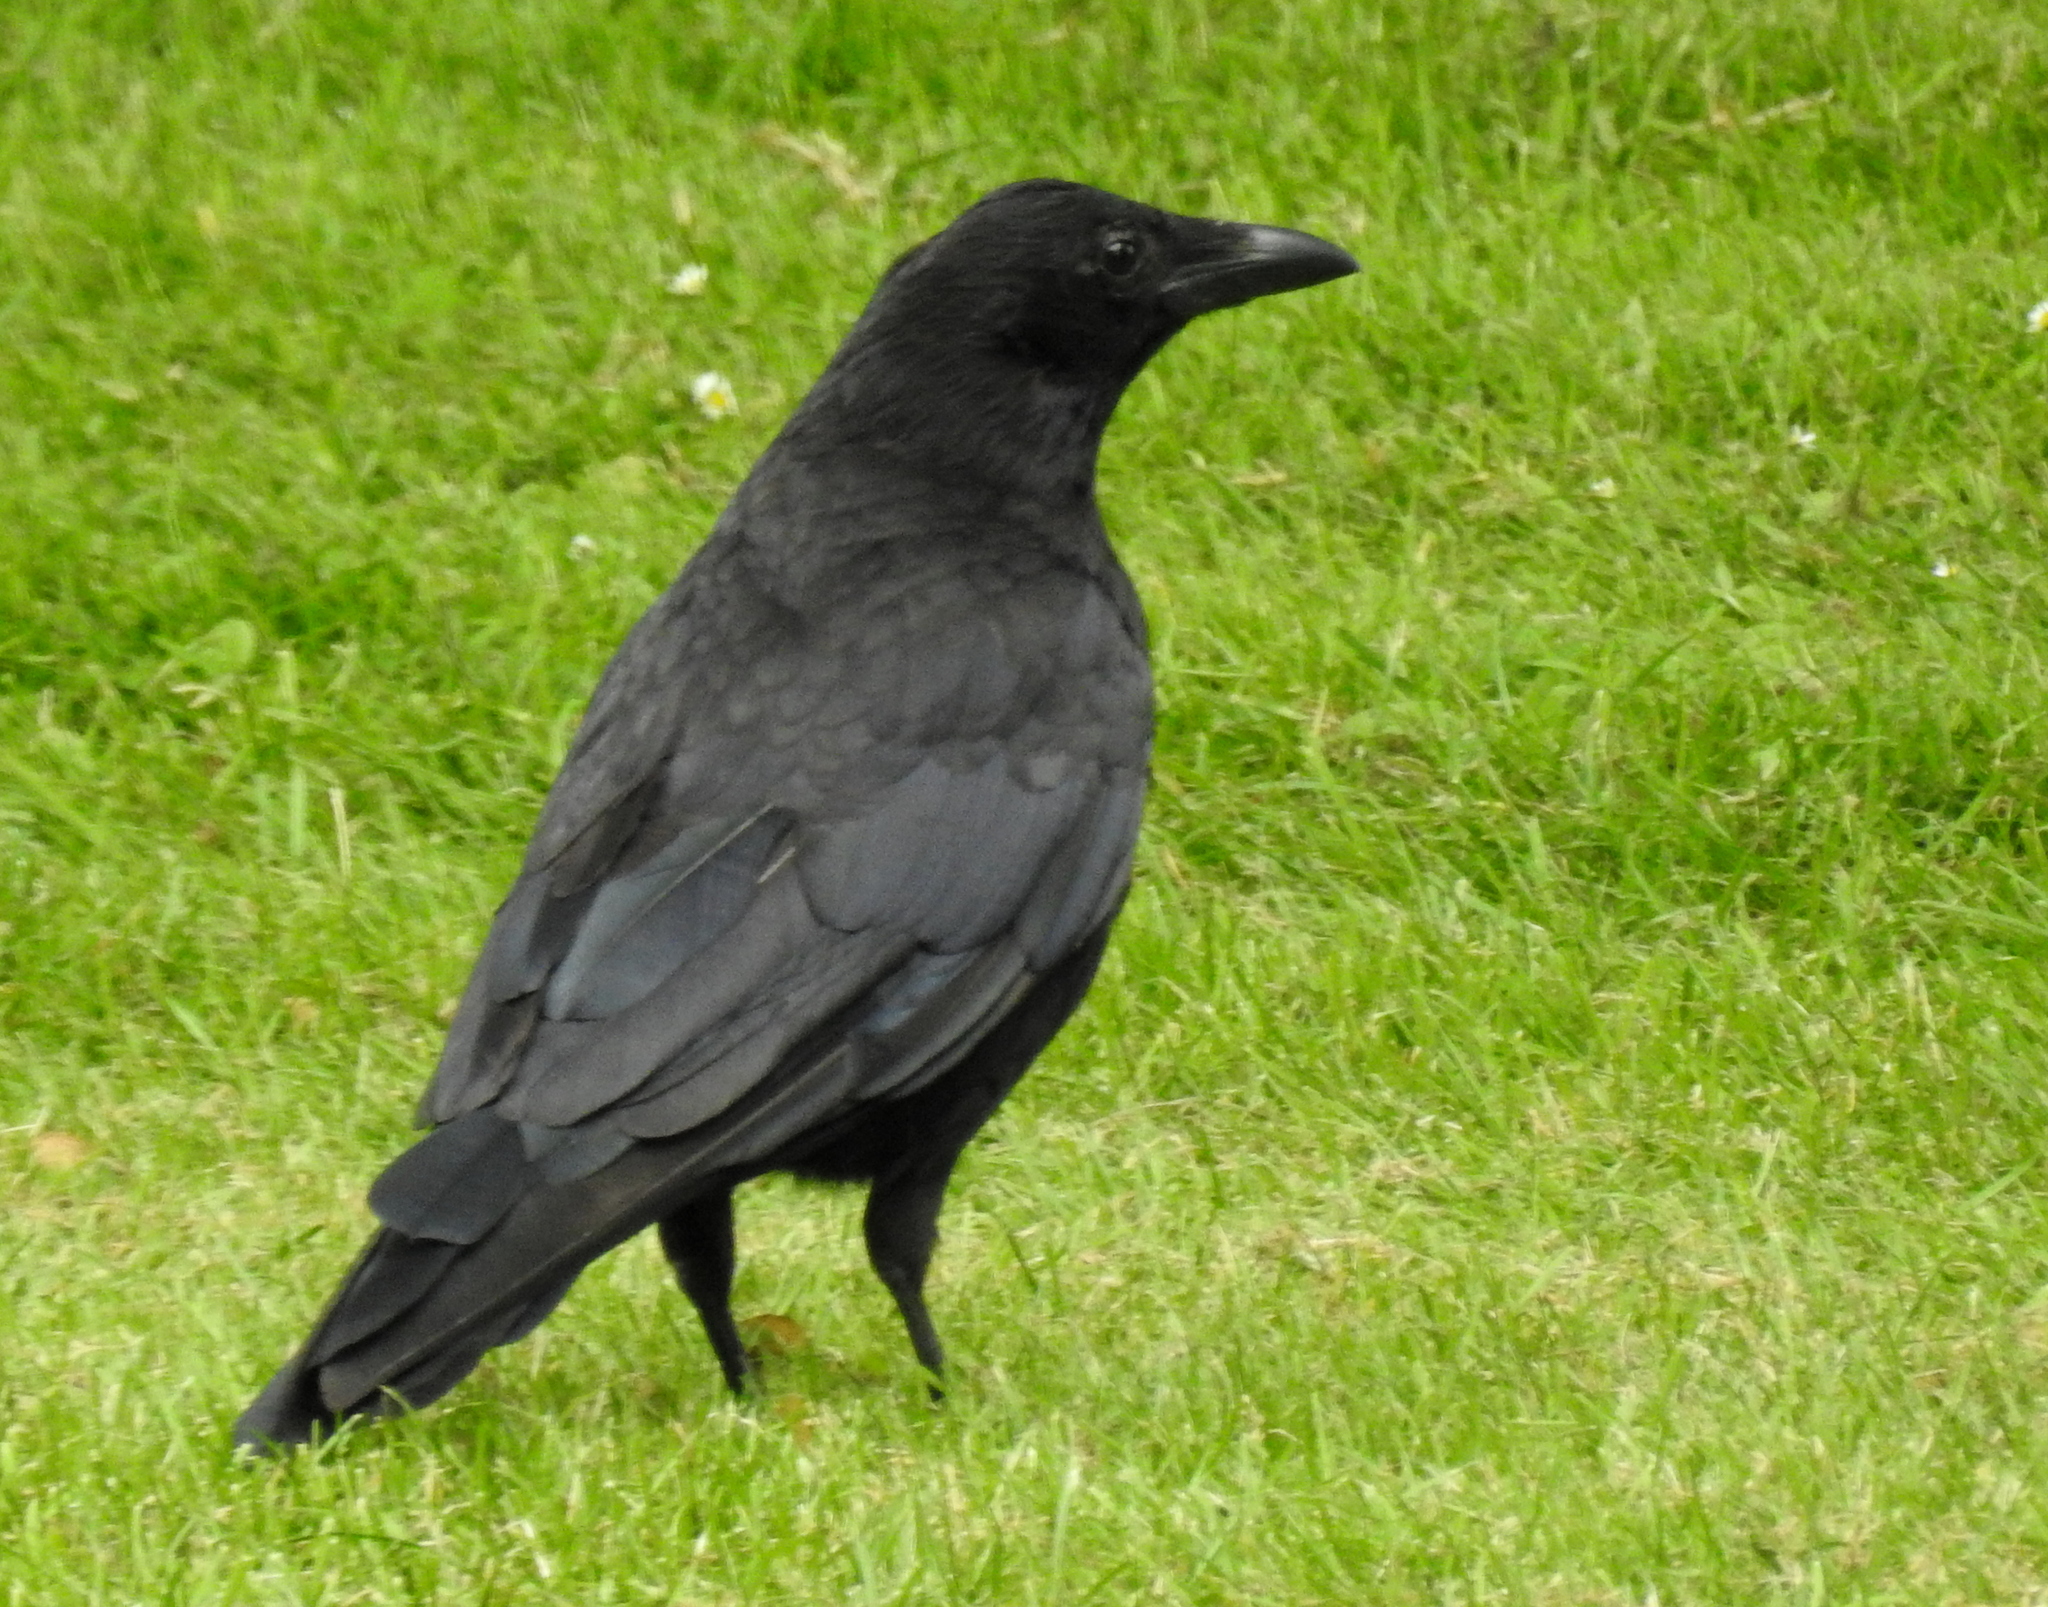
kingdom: Animalia
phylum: Chordata
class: Aves
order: Passeriformes
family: Corvidae
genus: Corvus
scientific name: Corvus corone
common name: Carrion crow
